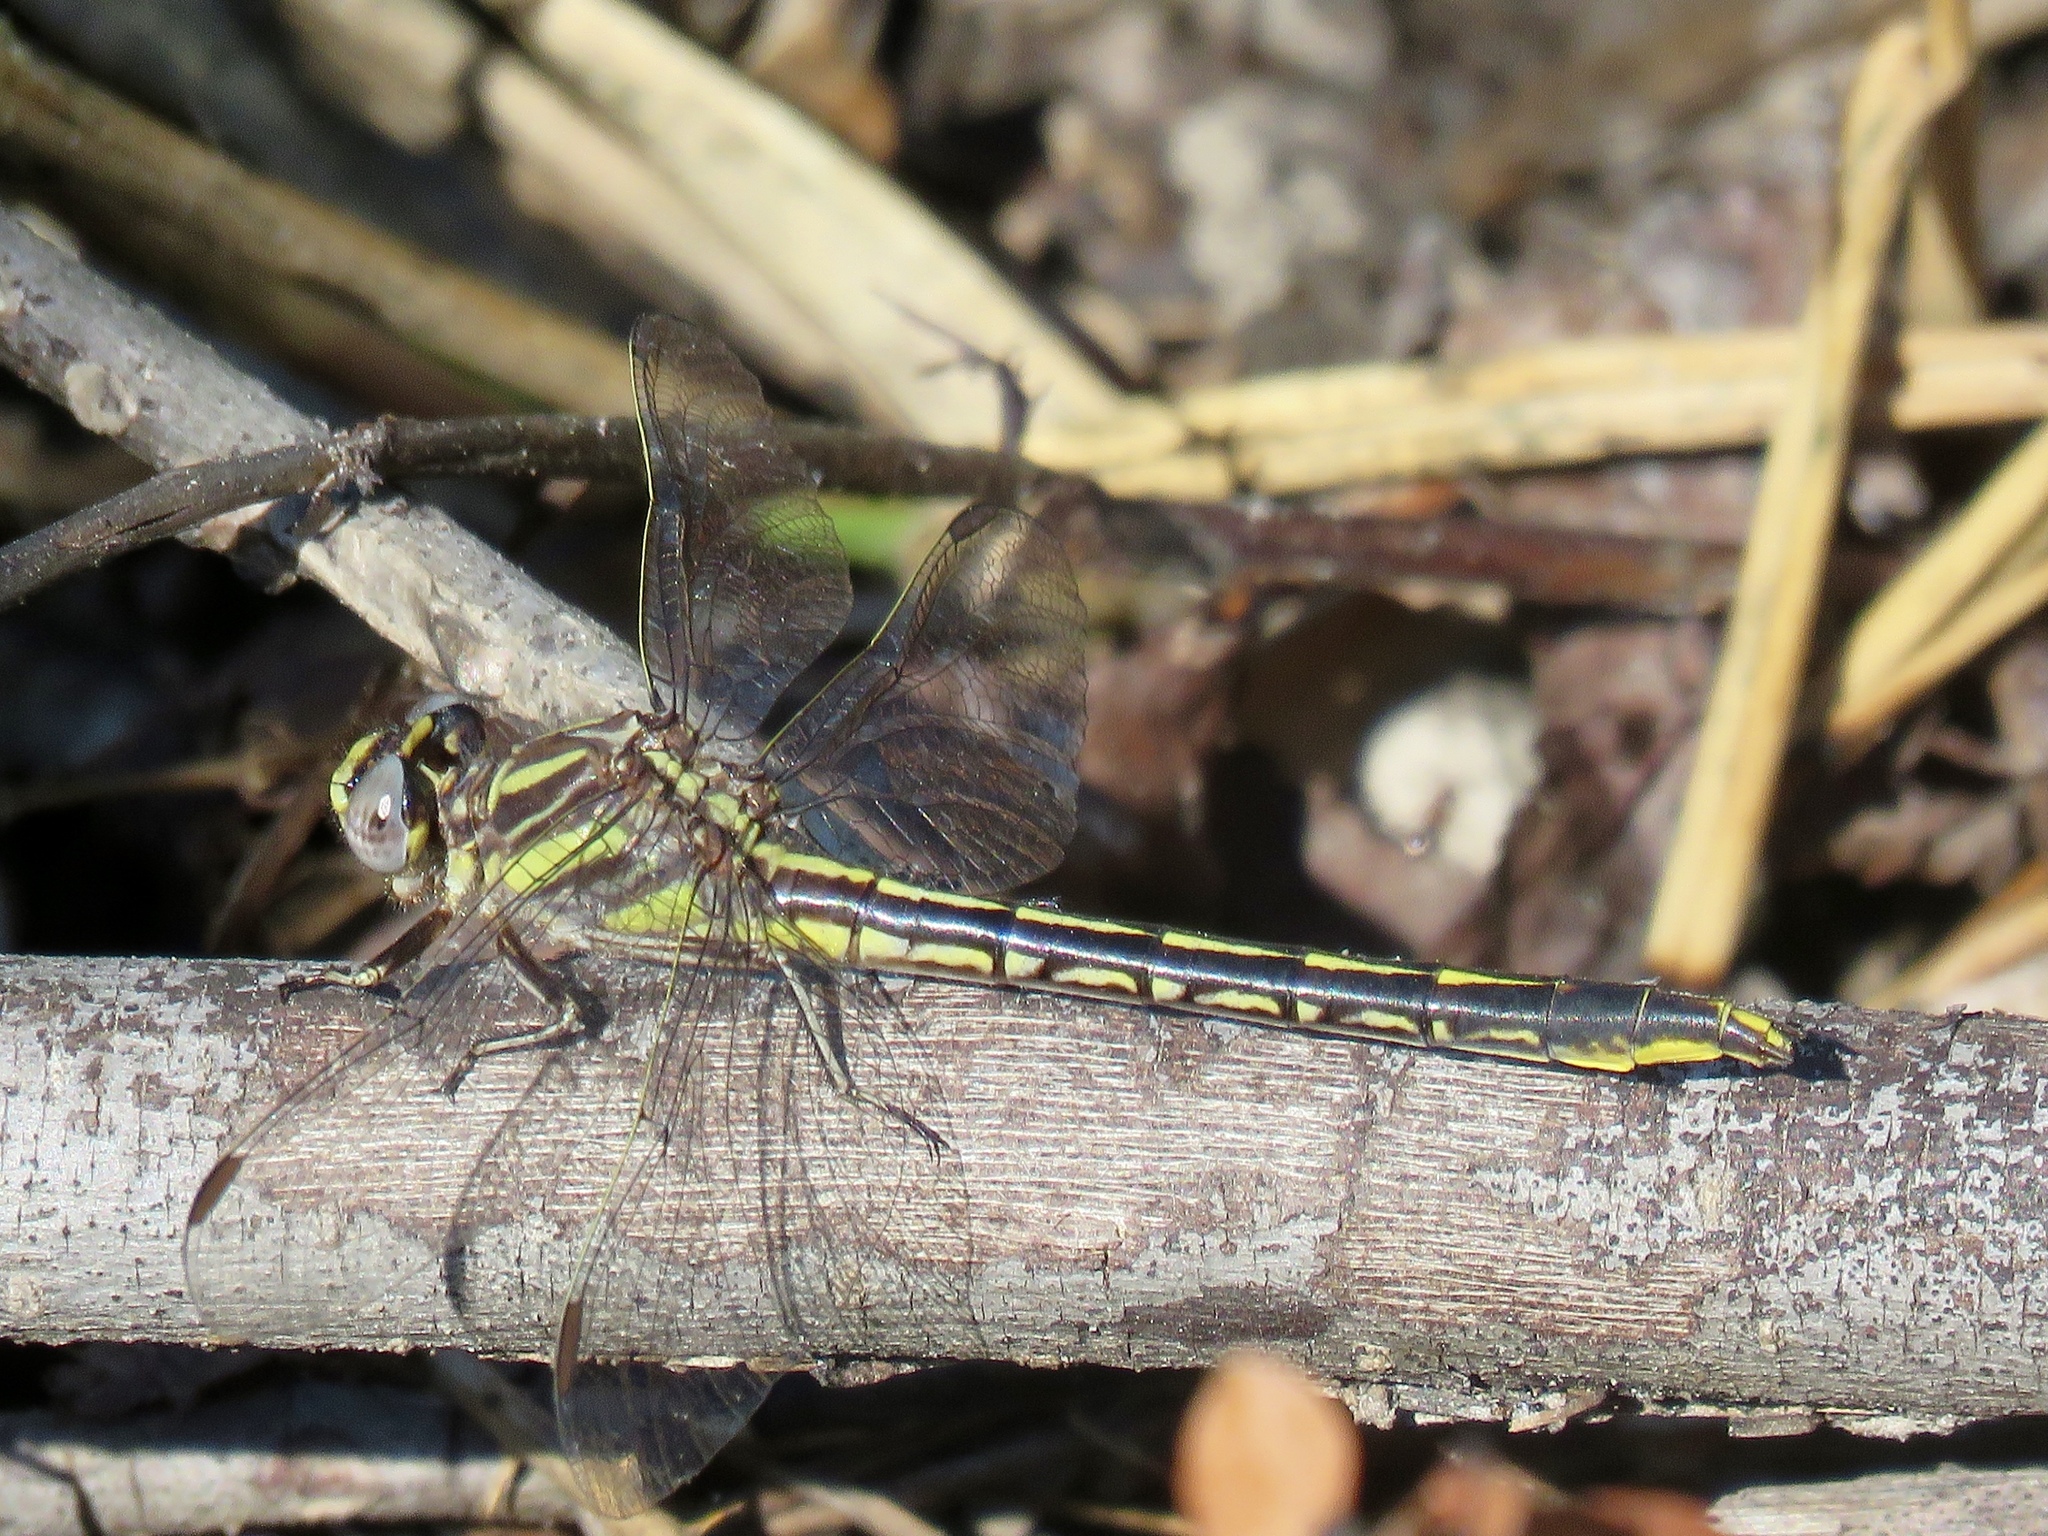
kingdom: Animalia
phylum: Arthropoda
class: Insecta
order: Odonata
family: Gomphidae
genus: Phanogomphus
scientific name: Phanogomphus oklahomensis
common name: Oklahoma clubtail
